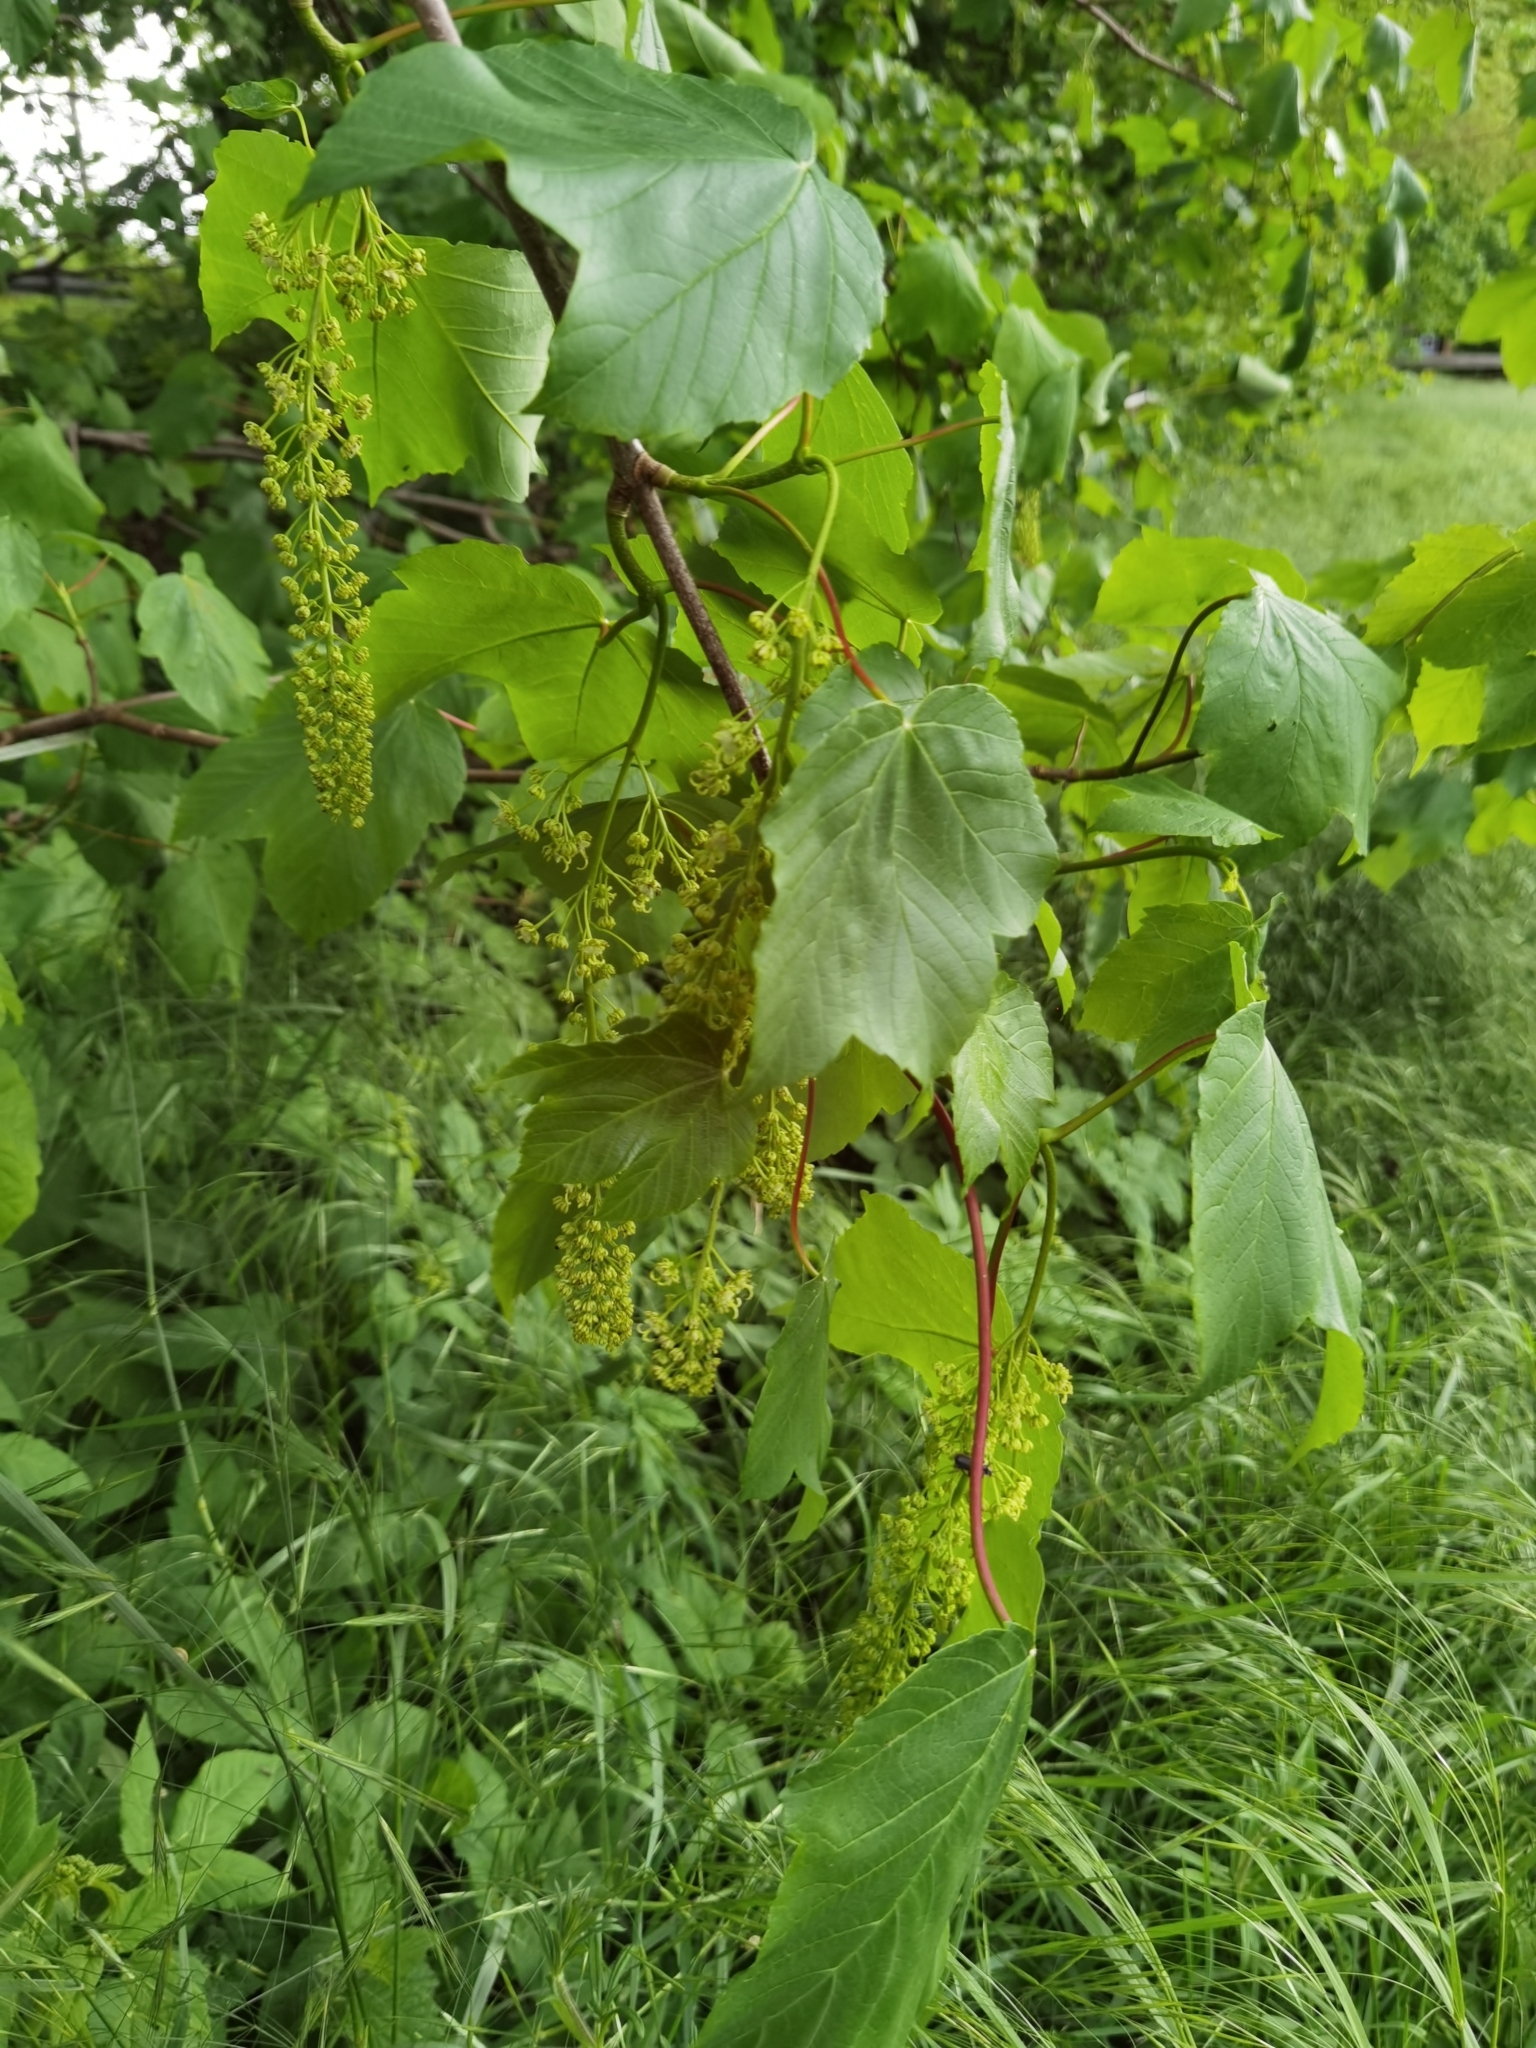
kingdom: Plantae
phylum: Tracheophyta
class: Magnoliopsida
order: Sapindales
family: Sapindaceae
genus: Acer
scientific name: Acer pseudoplatanus
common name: Sycamore
